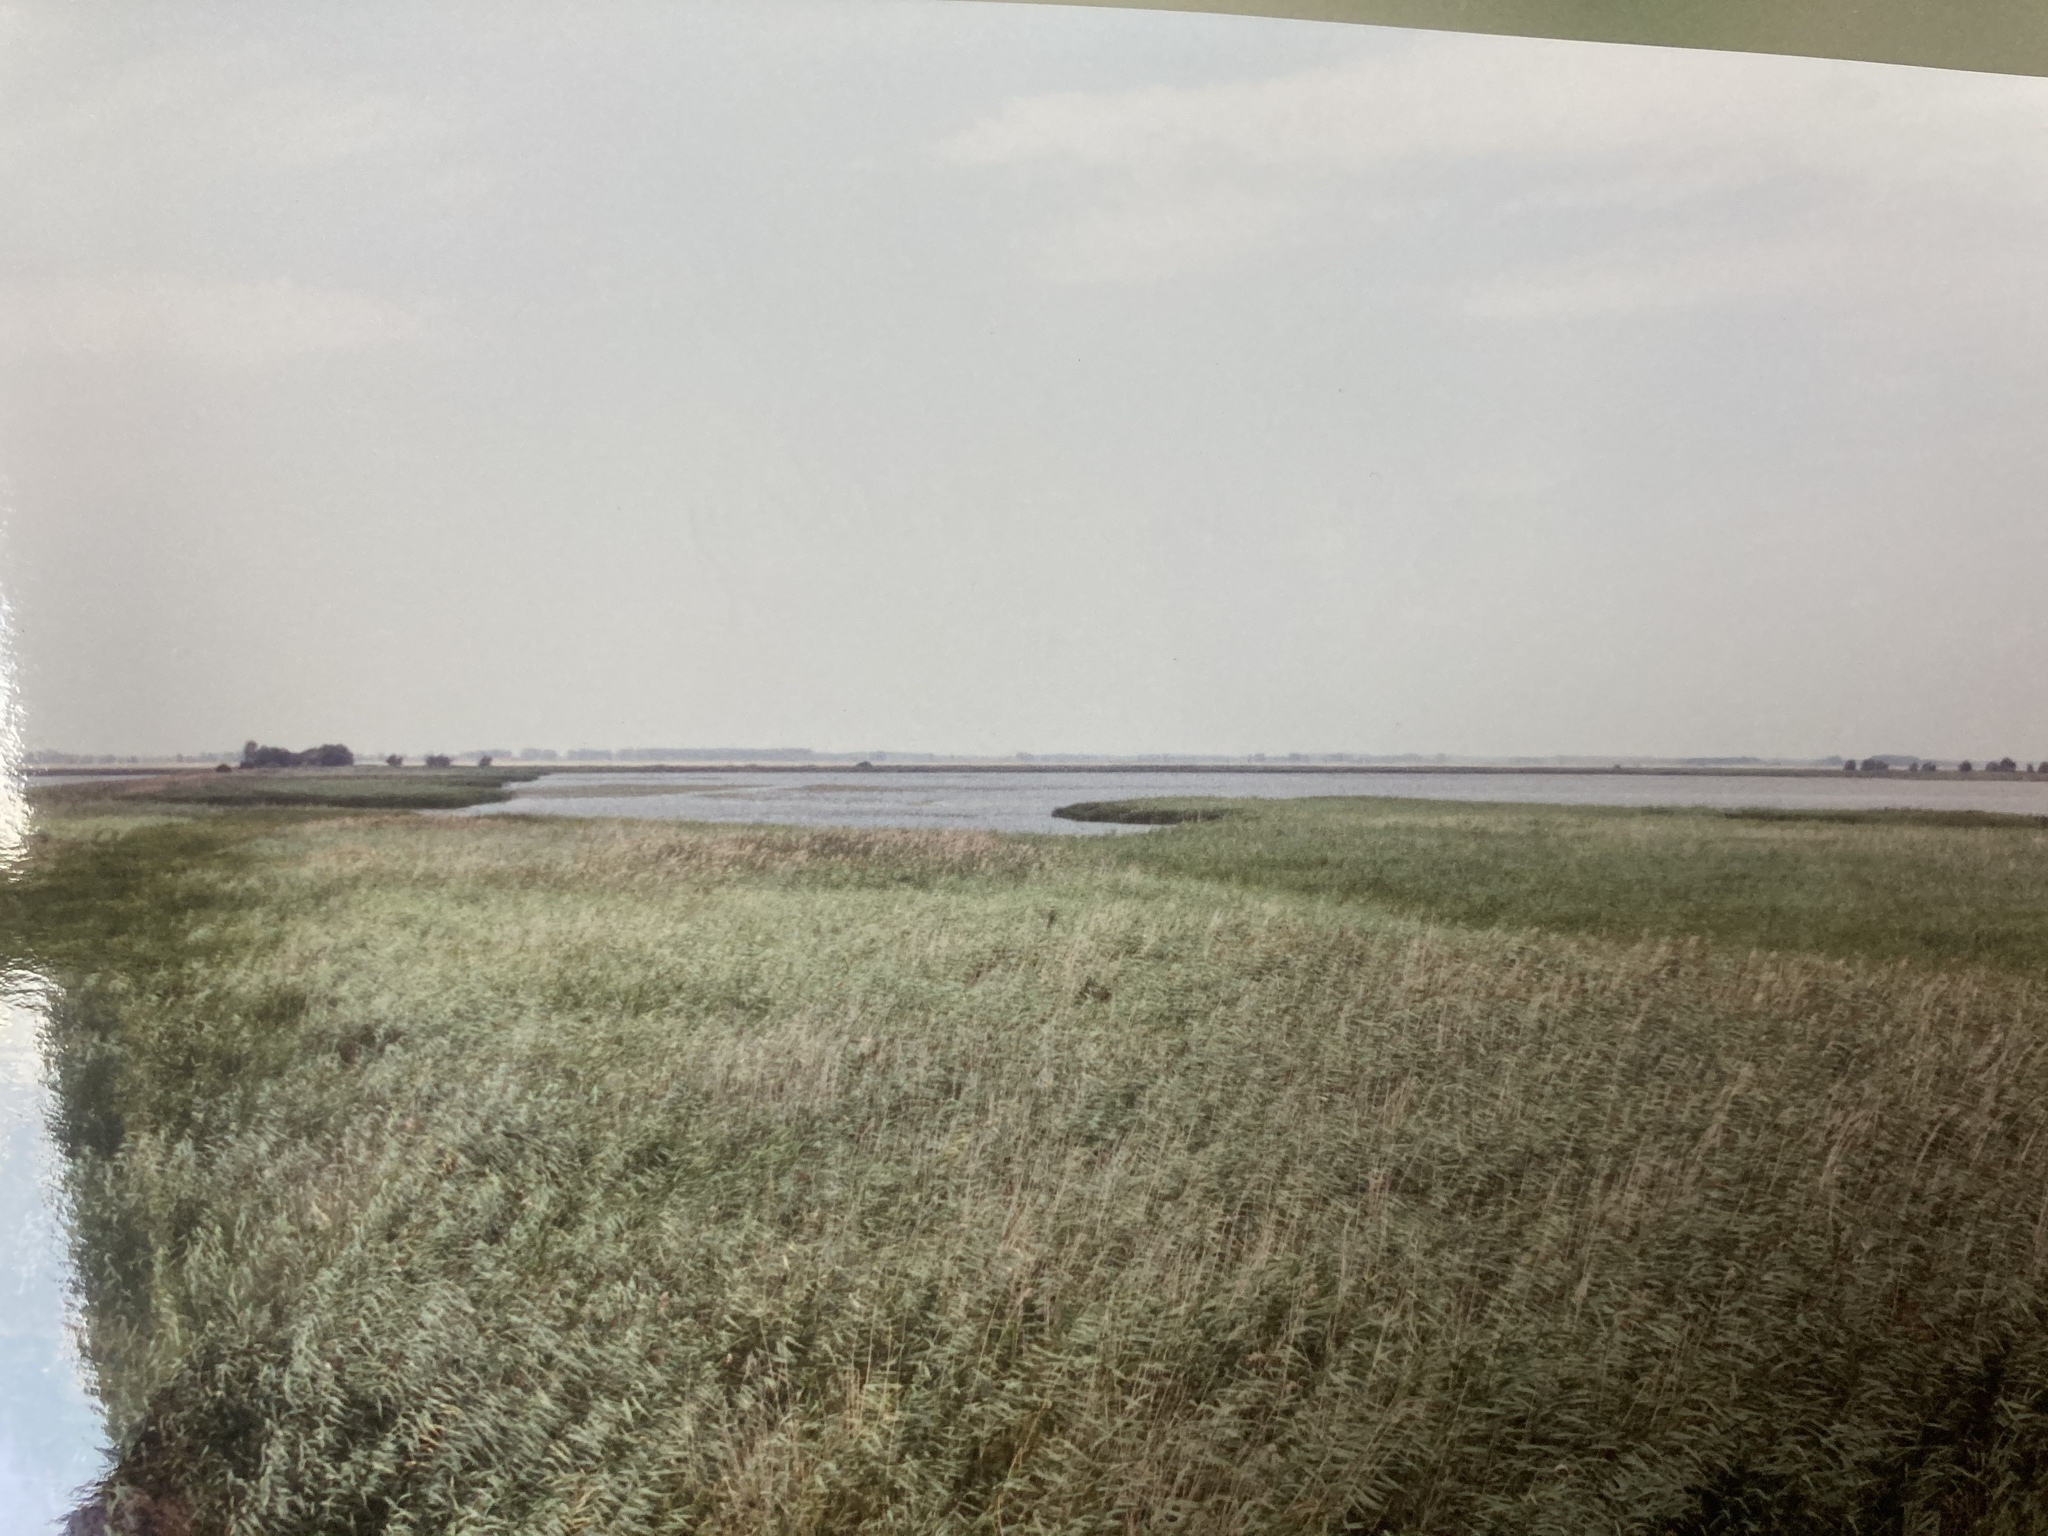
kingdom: Plantae
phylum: Tracheophyta
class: Liliopsida
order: Poales
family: Poaceae
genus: Phragmites
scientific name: Phragmites australis
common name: Common reed
